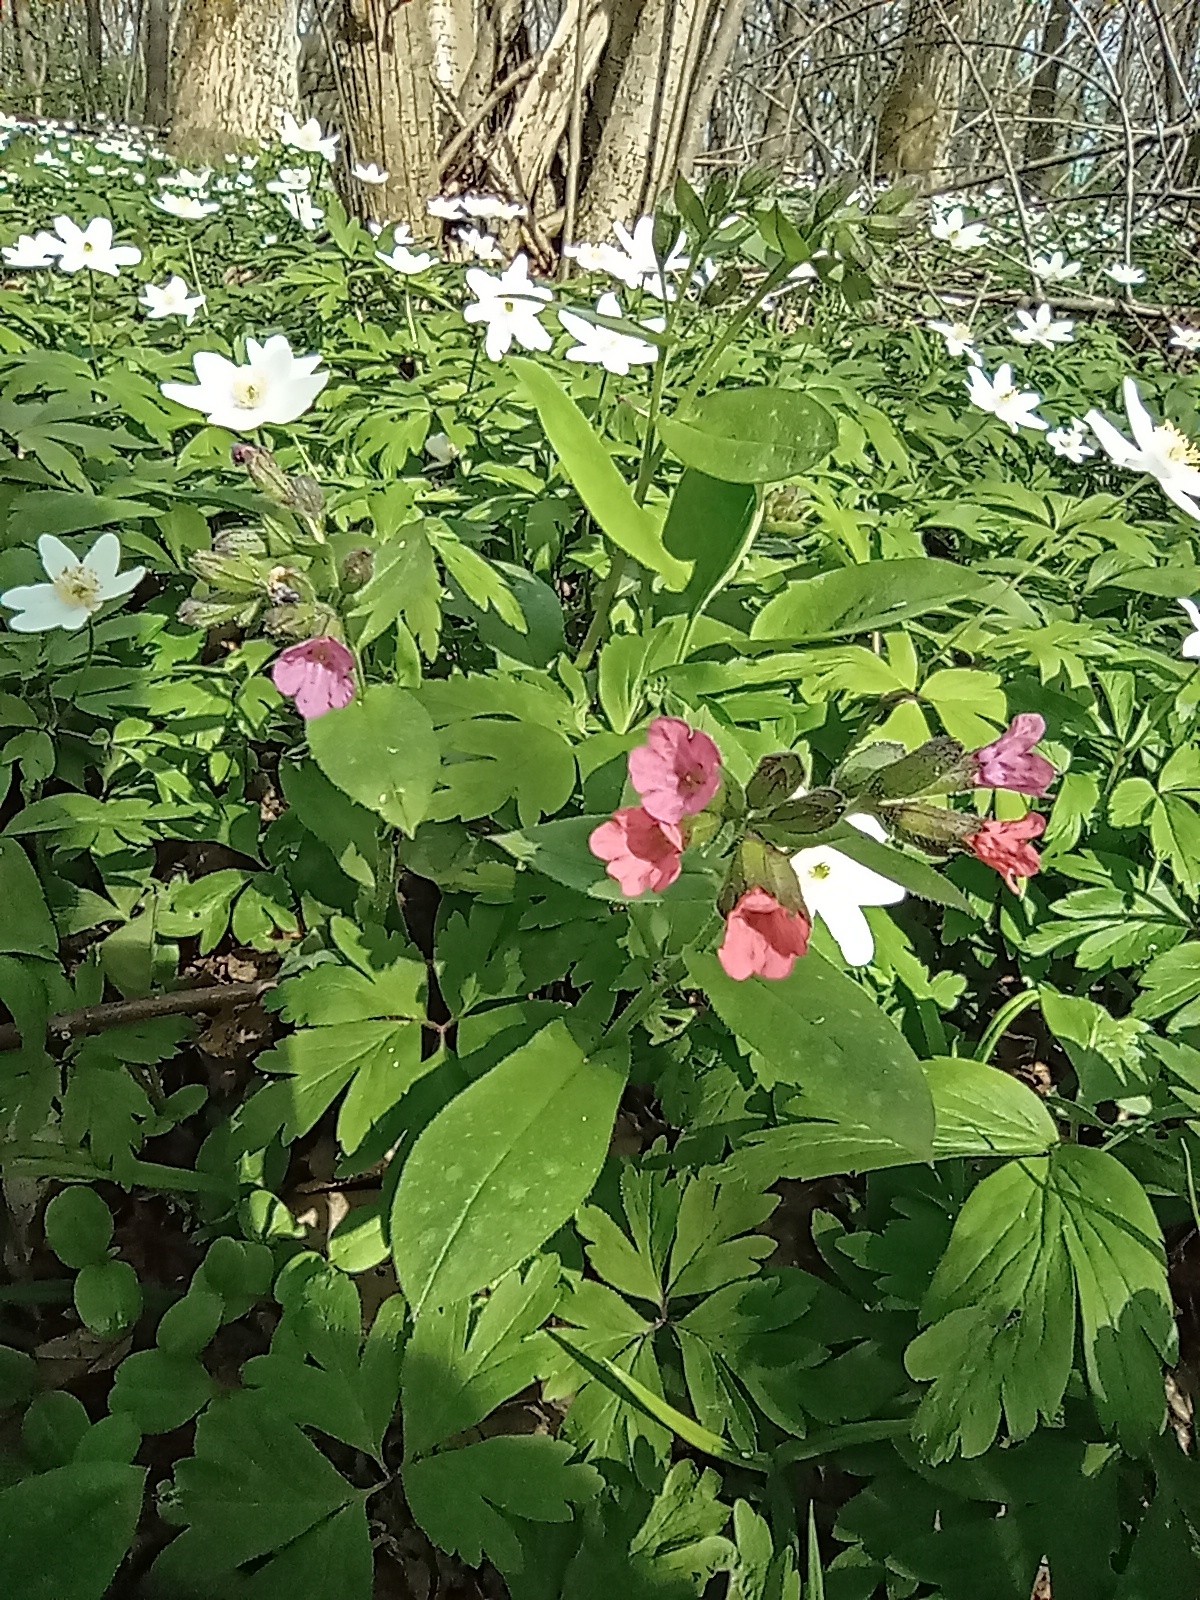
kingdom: Plantae
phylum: Tracheophyta
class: Magnoliopsida
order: Boraginales
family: Boraginaceae
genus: Pulmonaria
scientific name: Pulmonaria obscura
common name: Suffolk lungwort
